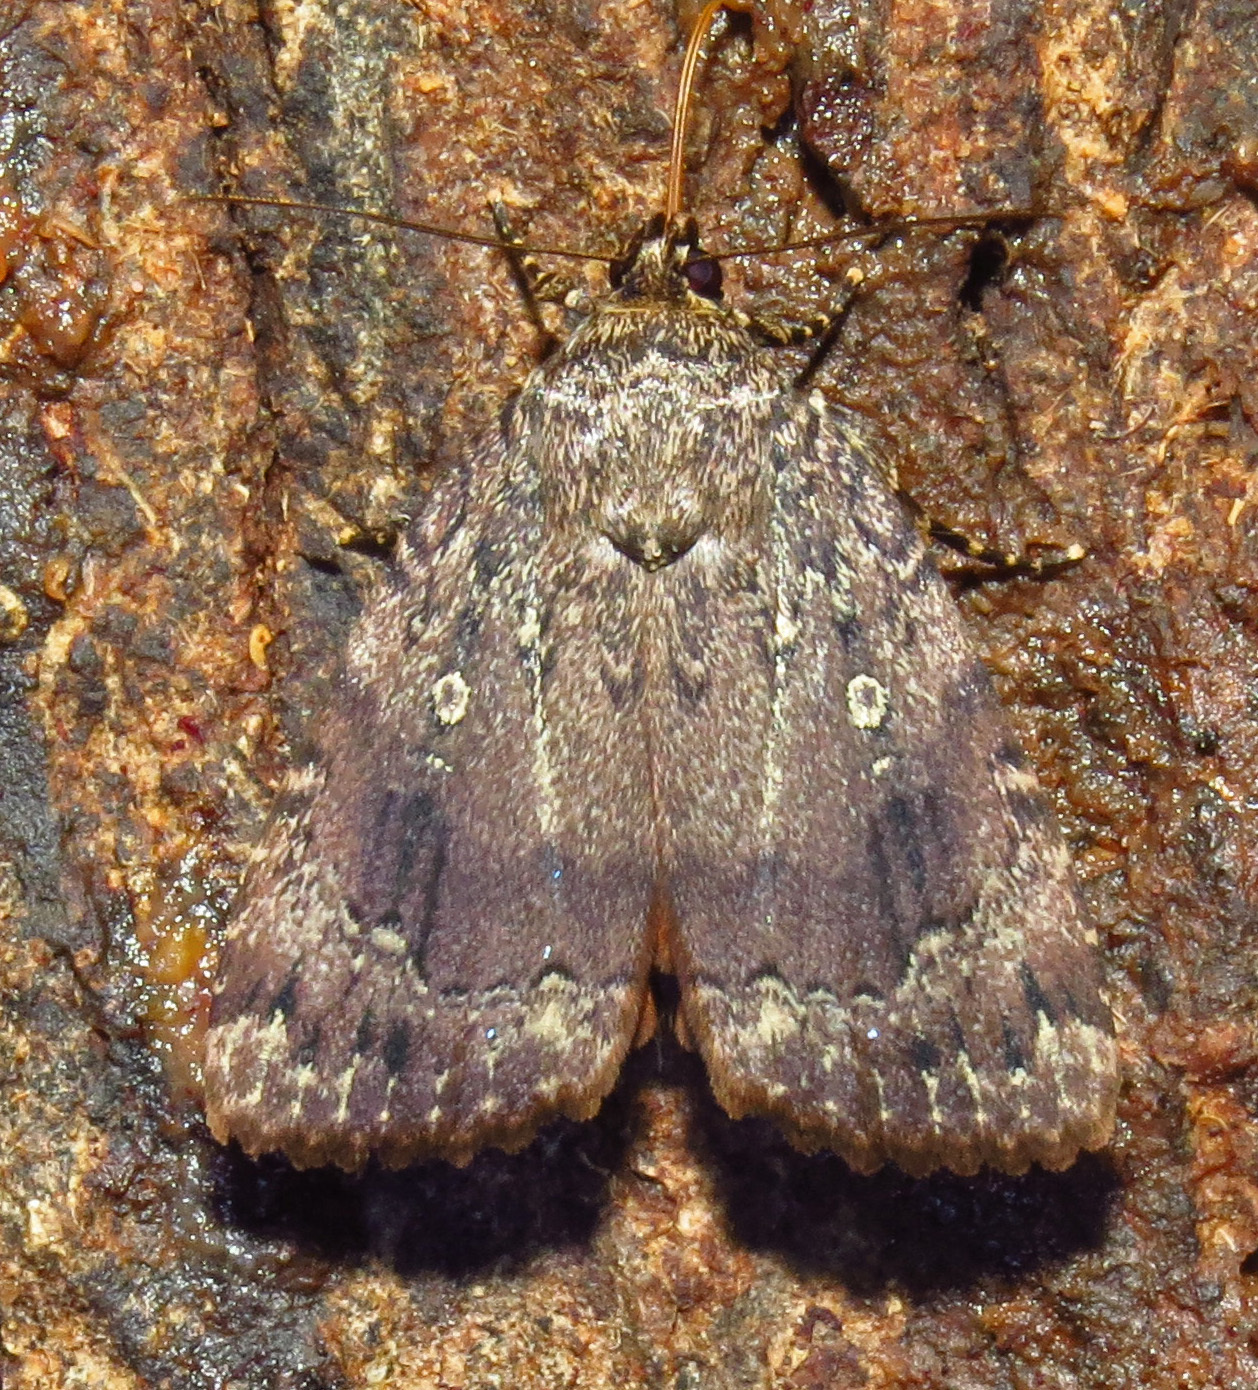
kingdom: Animalia
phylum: Arthropoda
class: Insecta
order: Lepidoptera
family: Noctuidae
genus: Amphipyra
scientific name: Amphipyra pyramidoides
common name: American copper underwing
